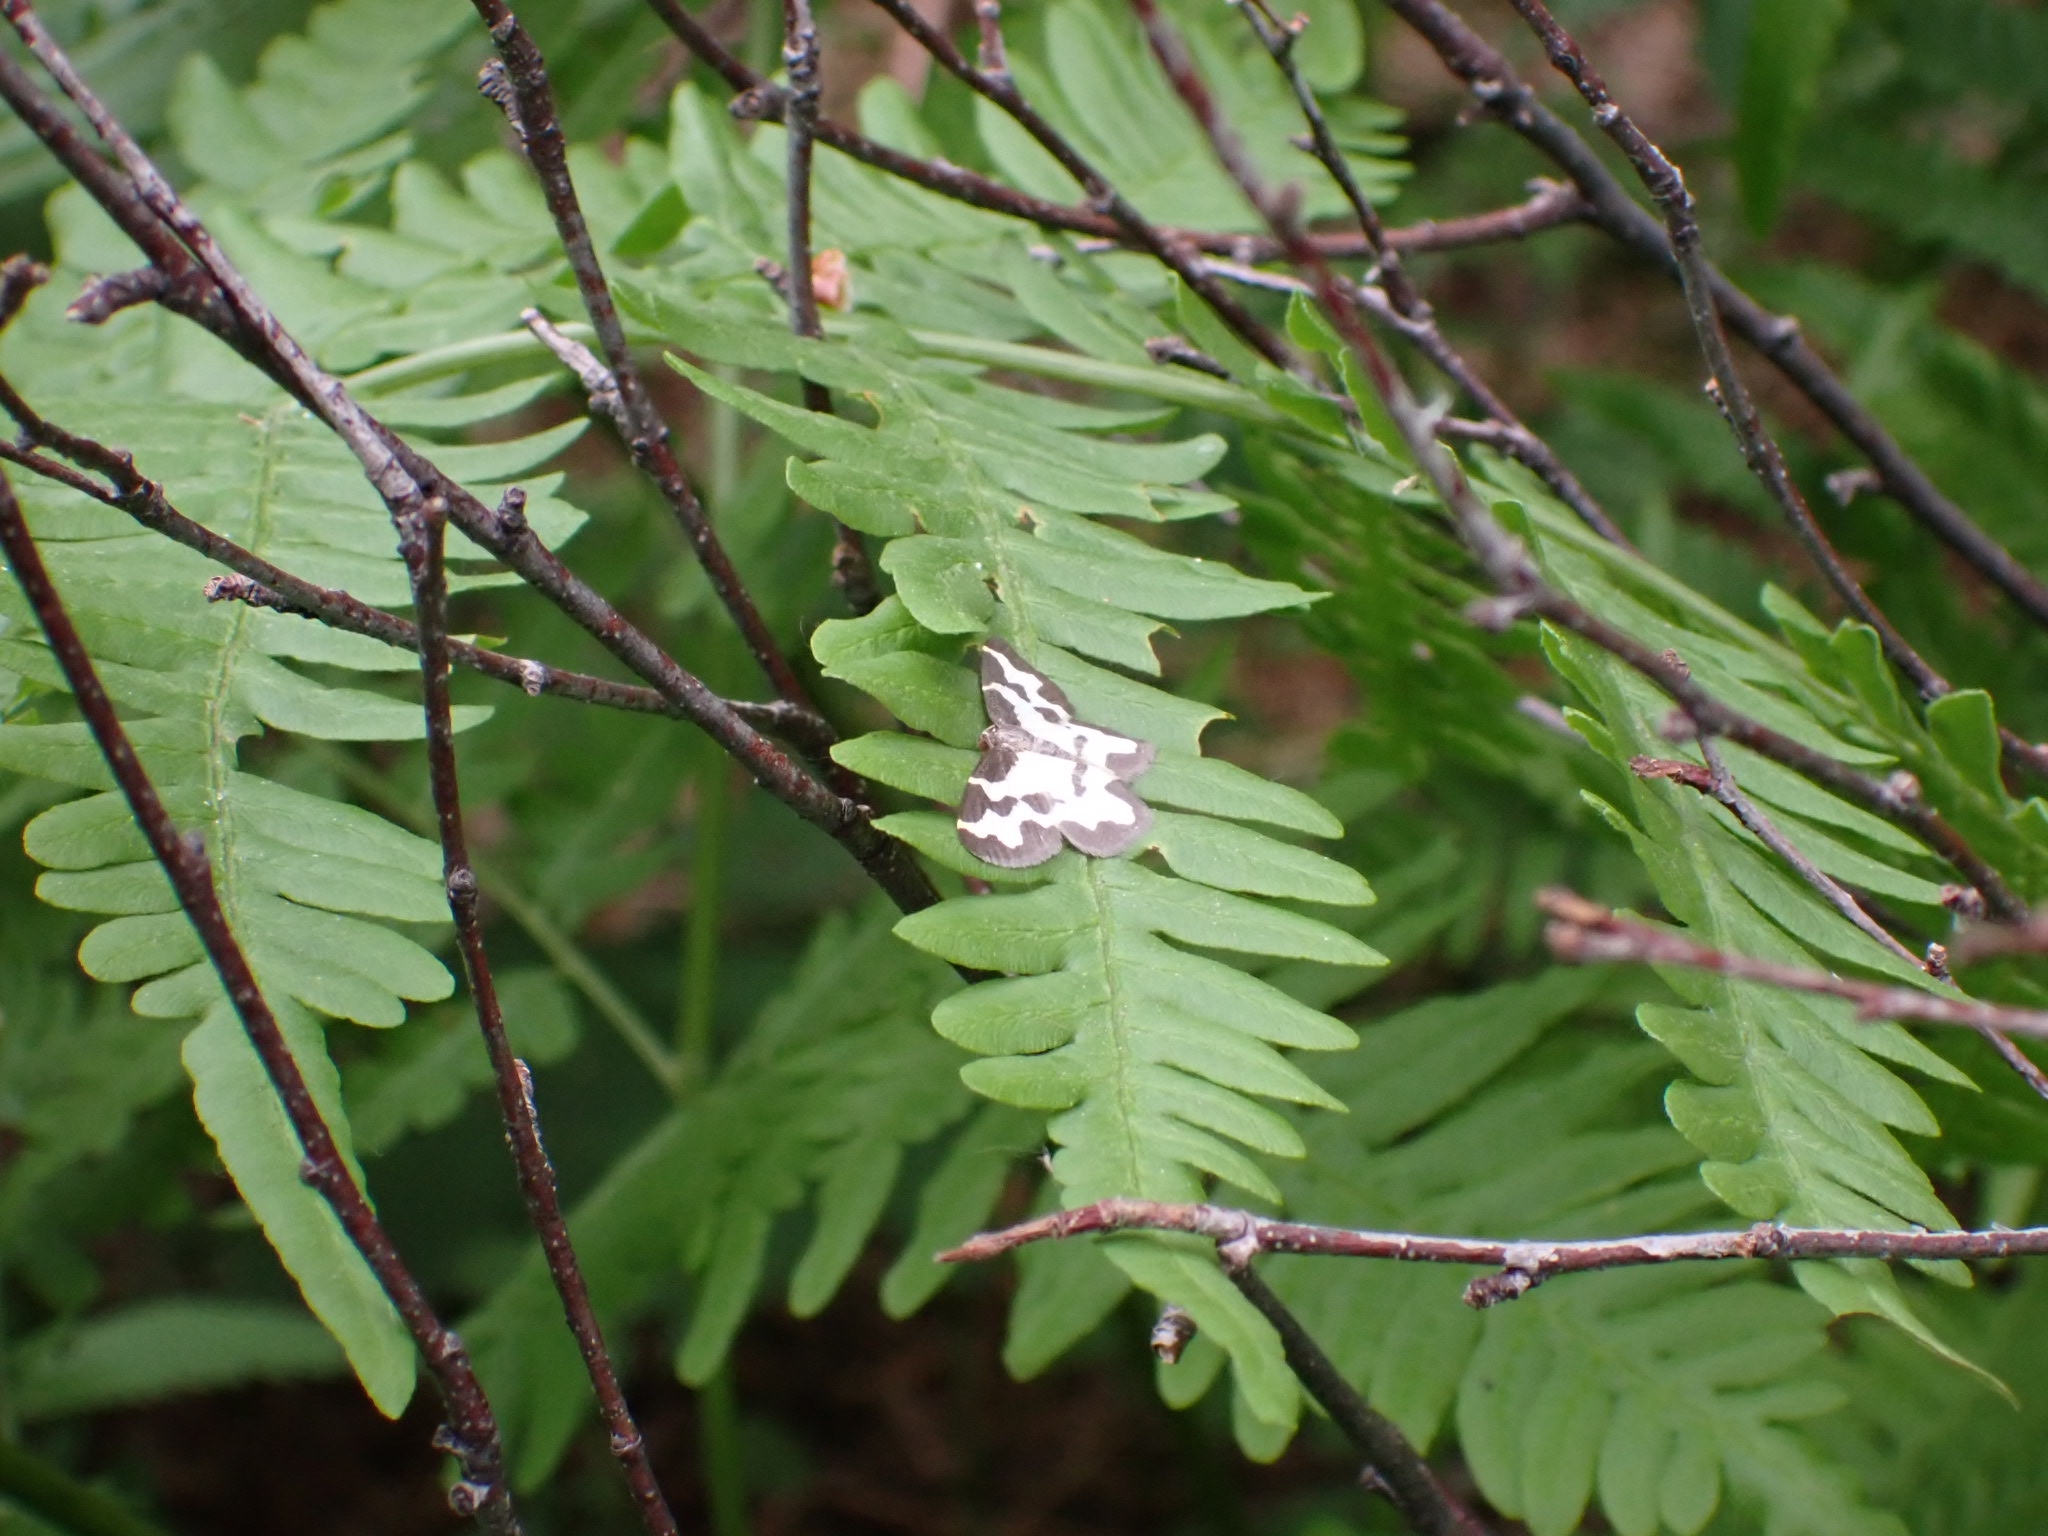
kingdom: Animalia
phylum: Arthropoda
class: Insecta
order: Lepidoptera
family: Geometridae
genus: Lomaspilis
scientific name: Lomaspilis marginata
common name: Clouded border
